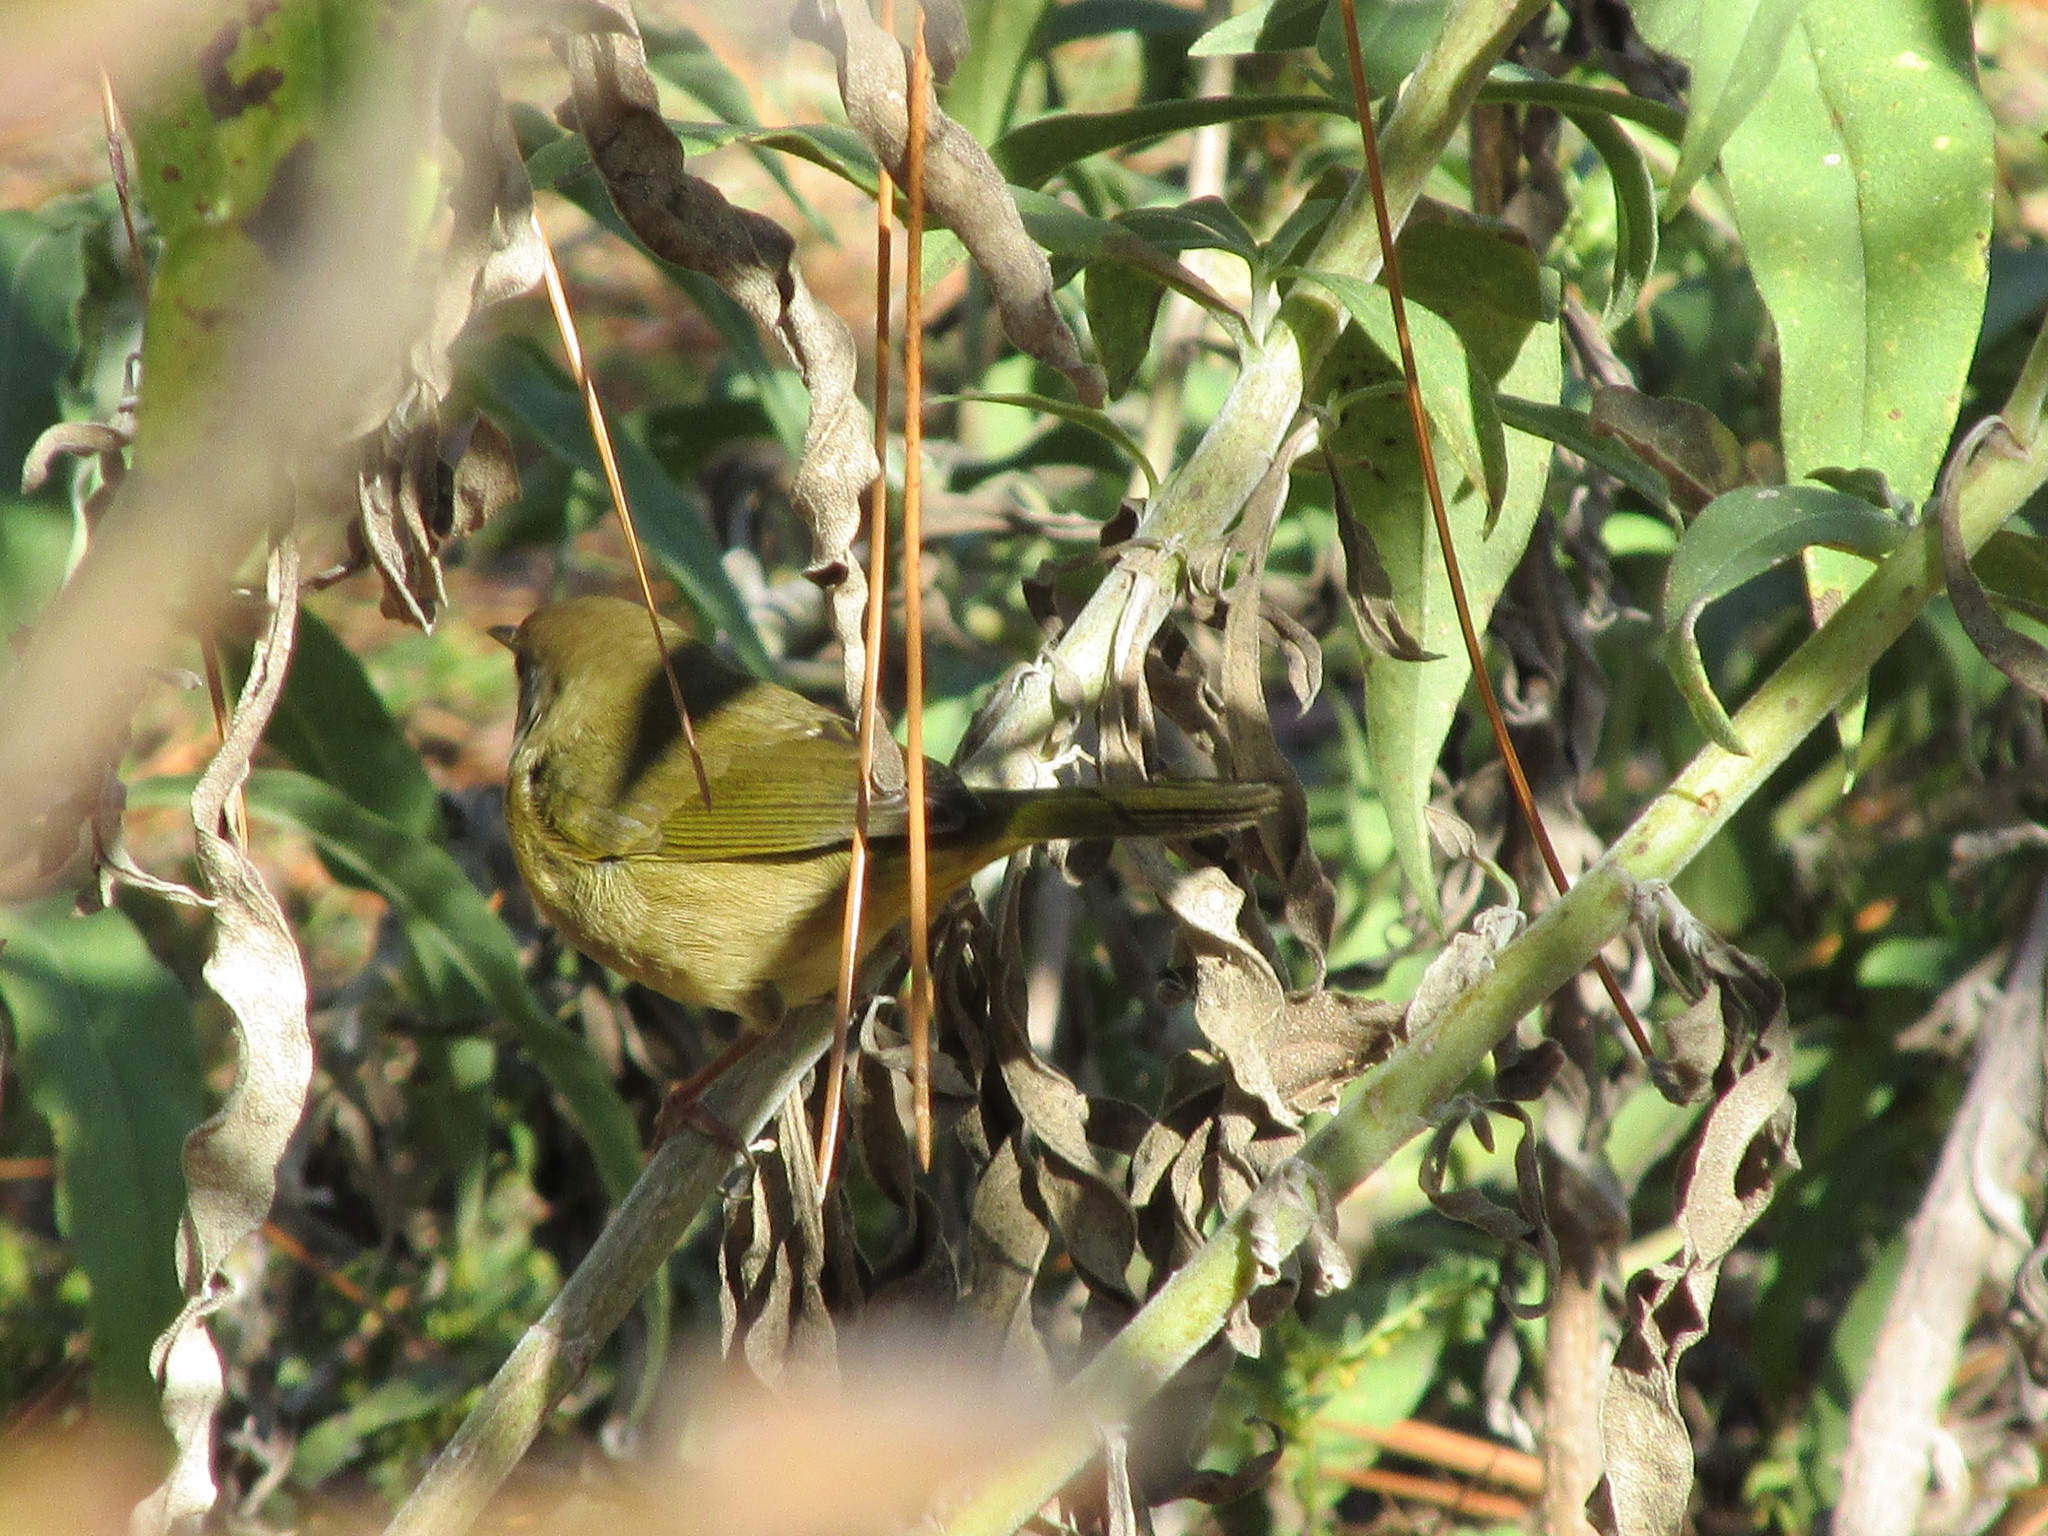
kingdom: Animalia
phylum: Chordata
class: Aves
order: Passeriformes
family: Parulidae
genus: Geothlypis
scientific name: Geothlypis trichas
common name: Common yellowthroat
